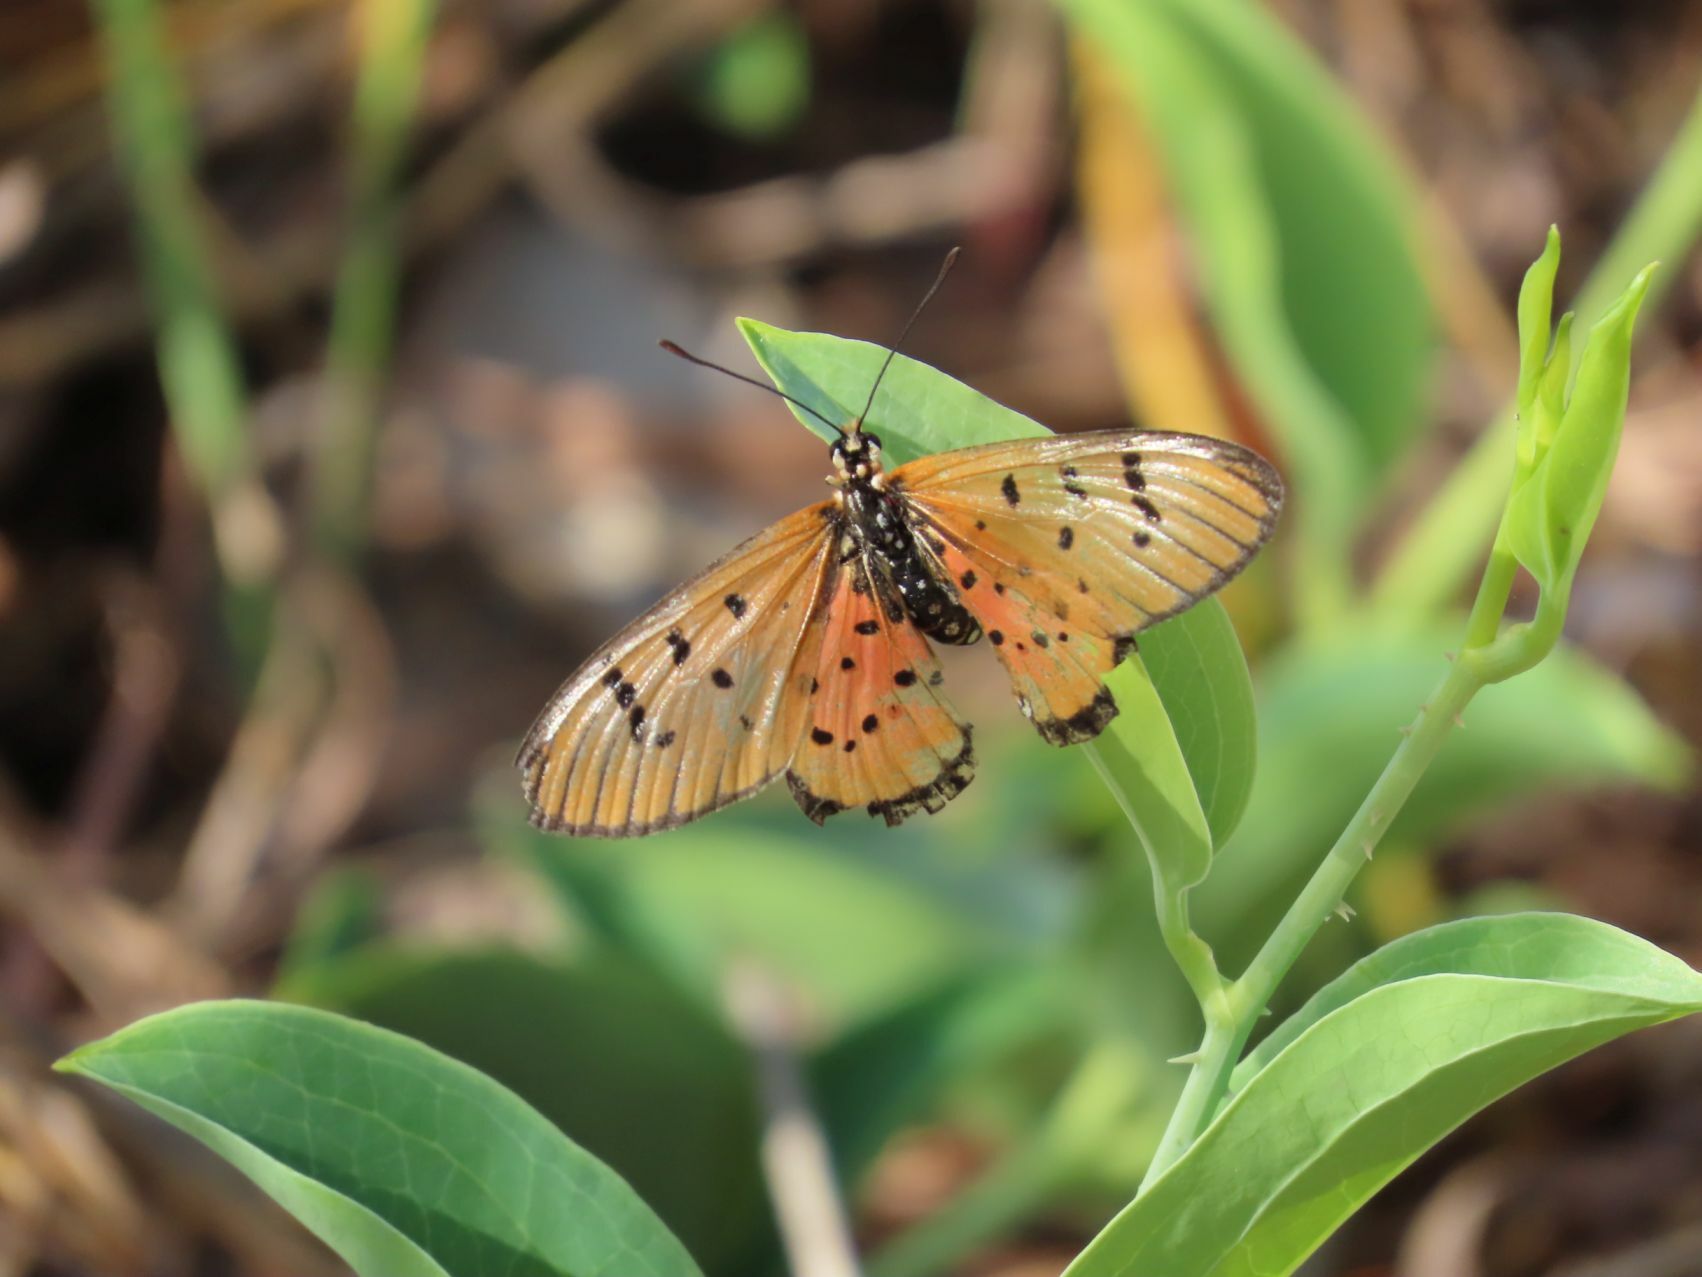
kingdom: Animalia
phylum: Arthropoda
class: Insecta
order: Lepidoptera
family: Nymphalidae
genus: Rubraea
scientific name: Rubraea
